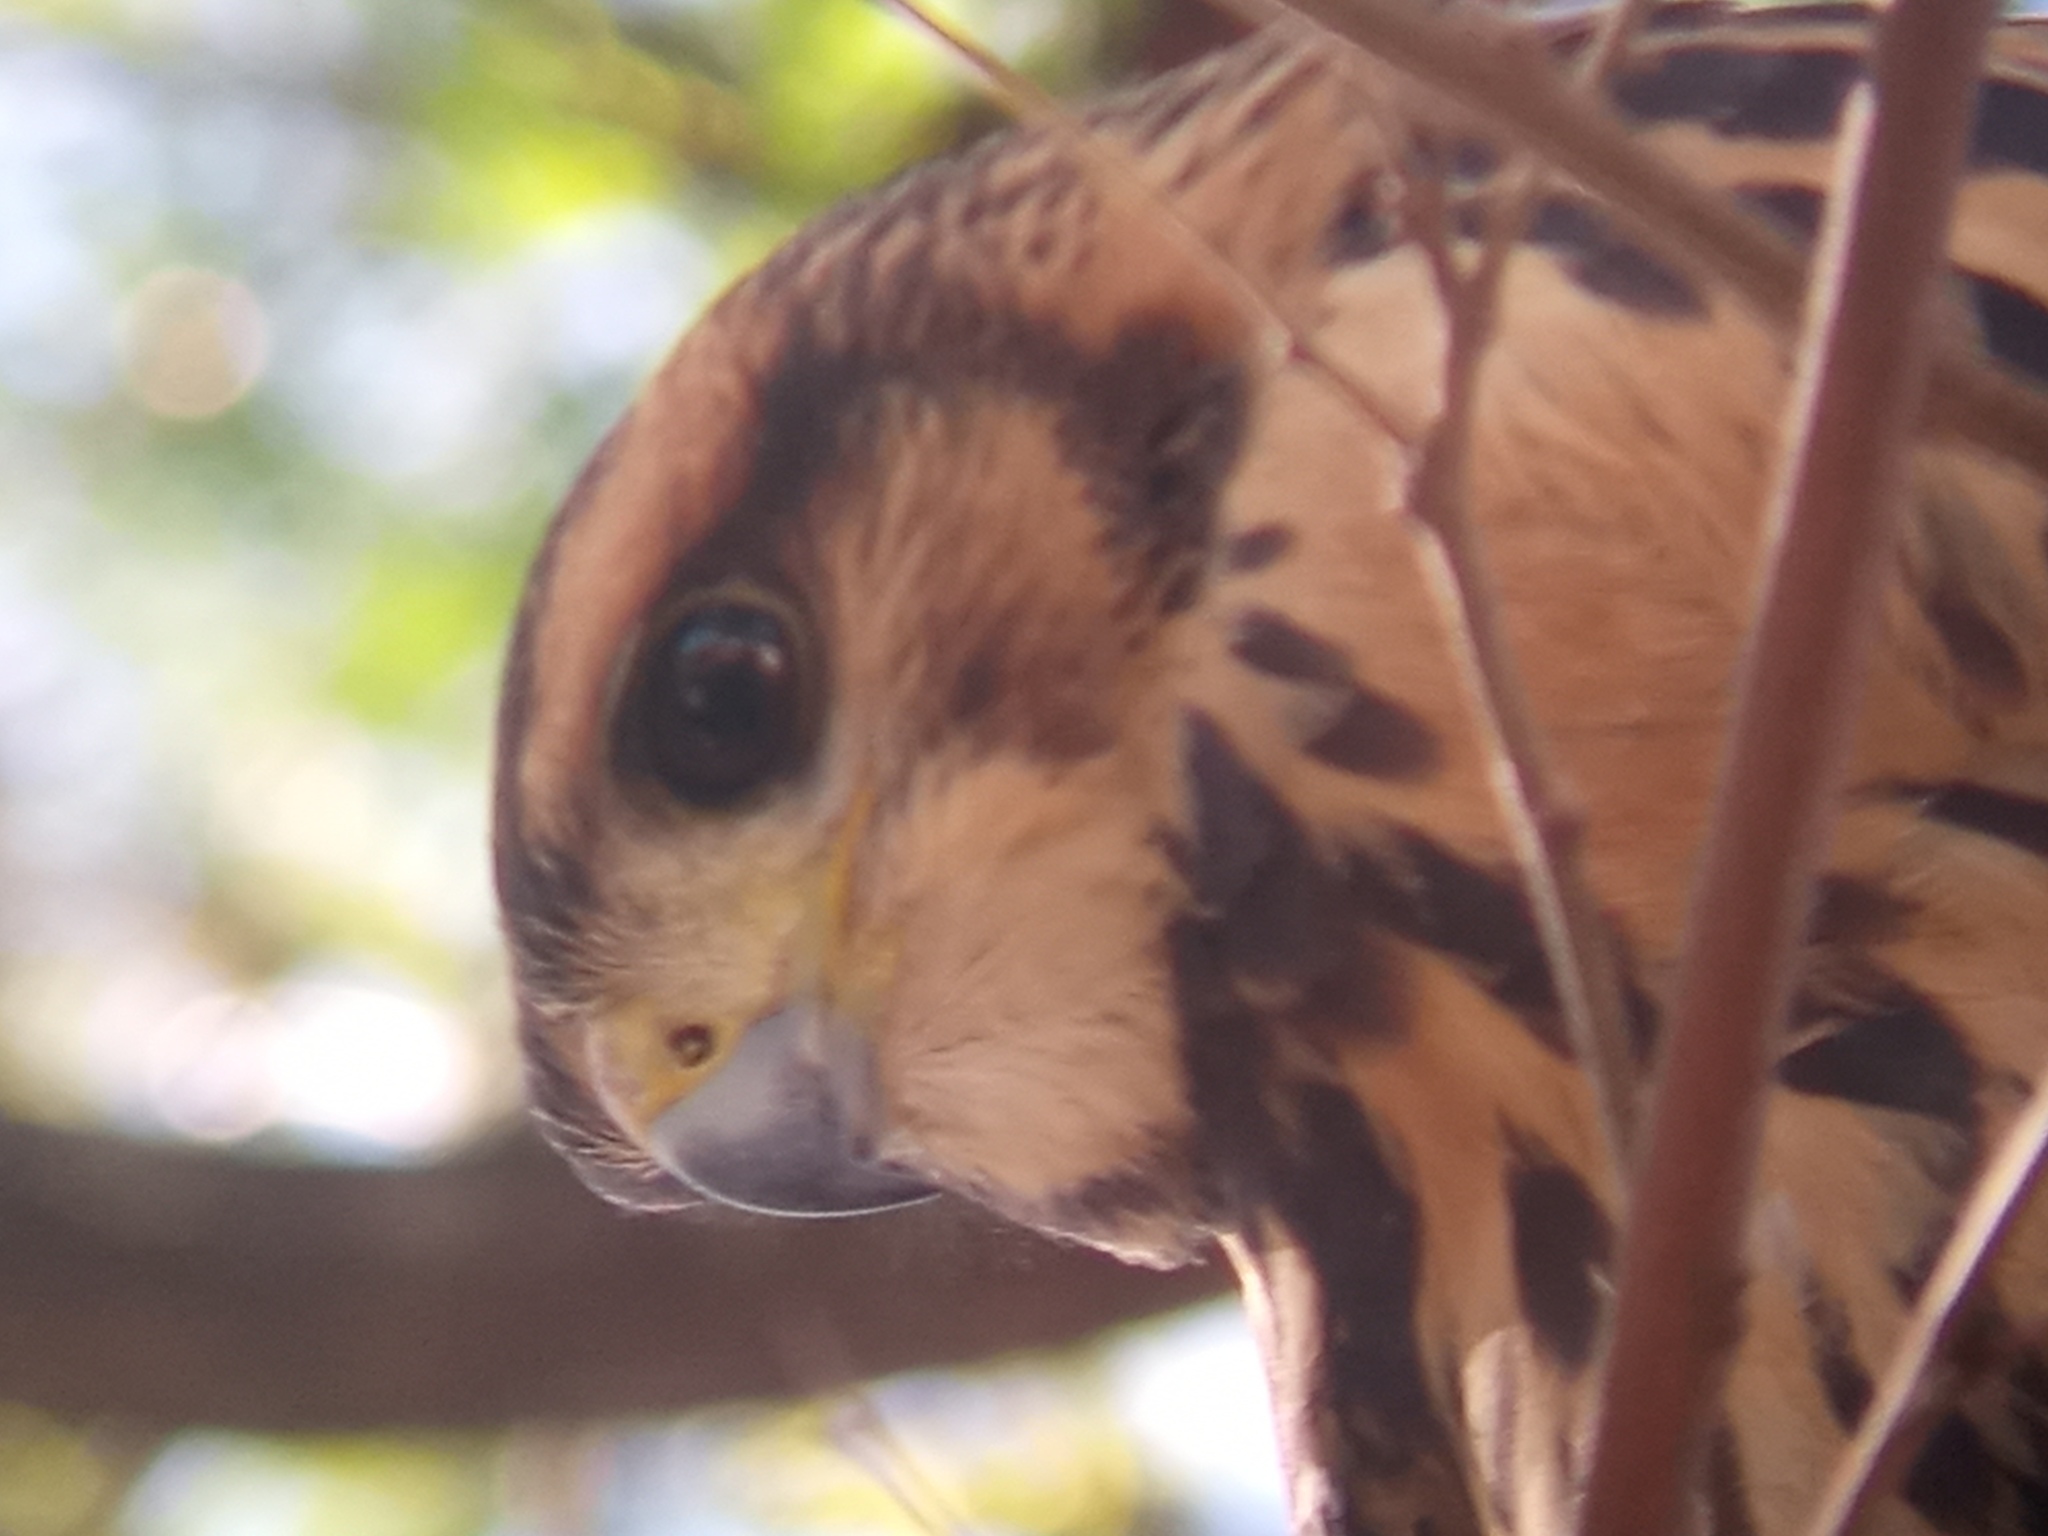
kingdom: Animalia
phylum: Chordata
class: Aves
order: Accipitriformes
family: Accipitridae
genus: Parabuteo
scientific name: Parabuteo unicinctus
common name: Harris's hawk
